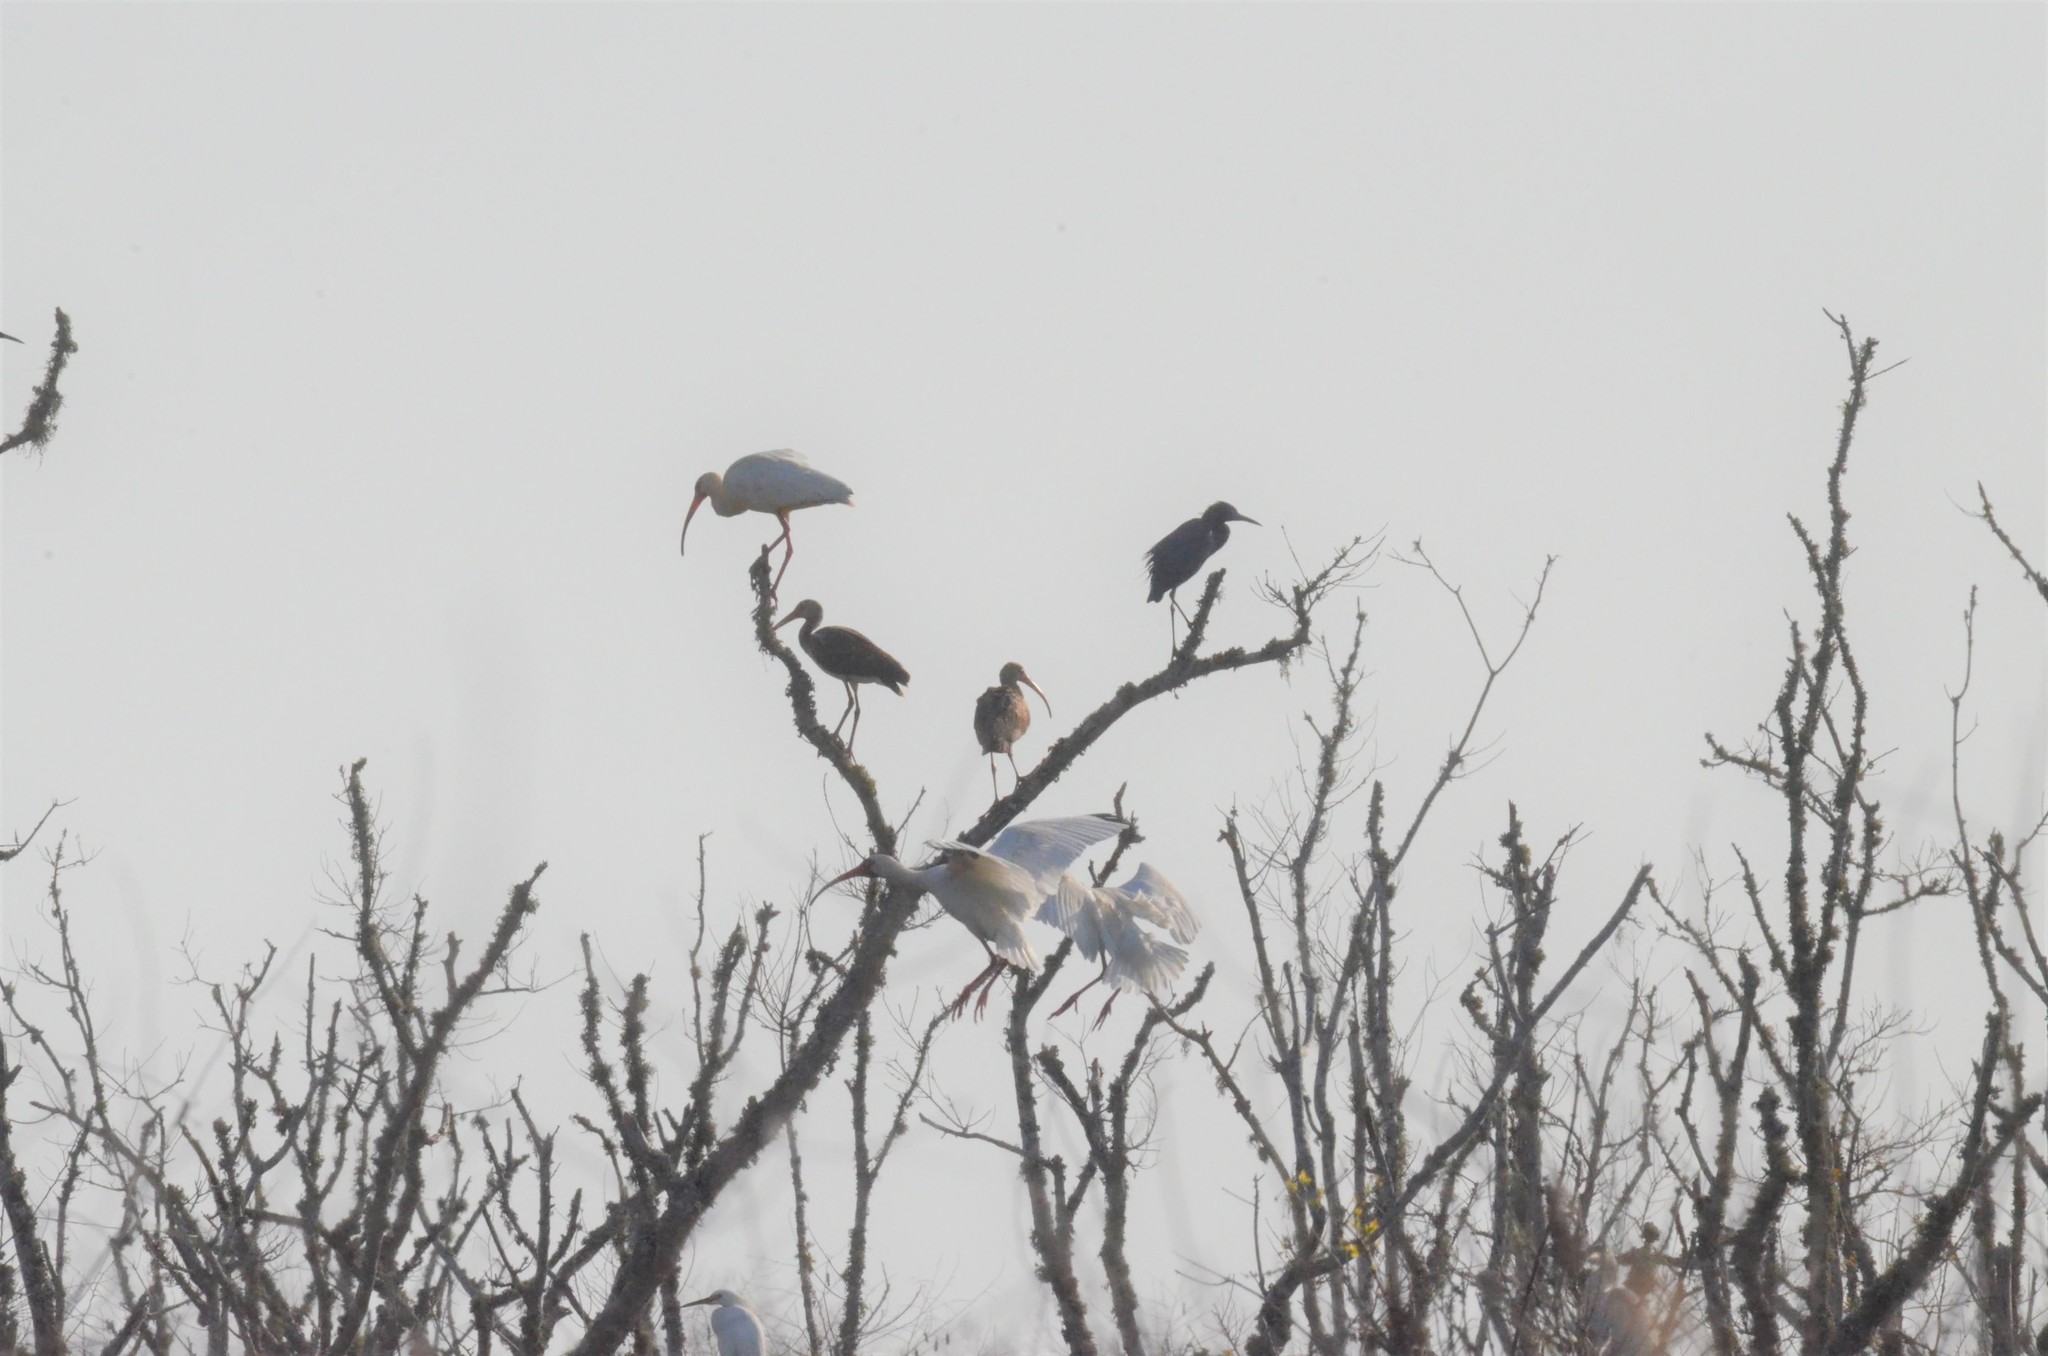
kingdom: Animalia
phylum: Chordata
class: Aves
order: Pelecaniformes
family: Threskiornithidae
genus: Eudocimus
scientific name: Eudocimus albus
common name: White ibis
